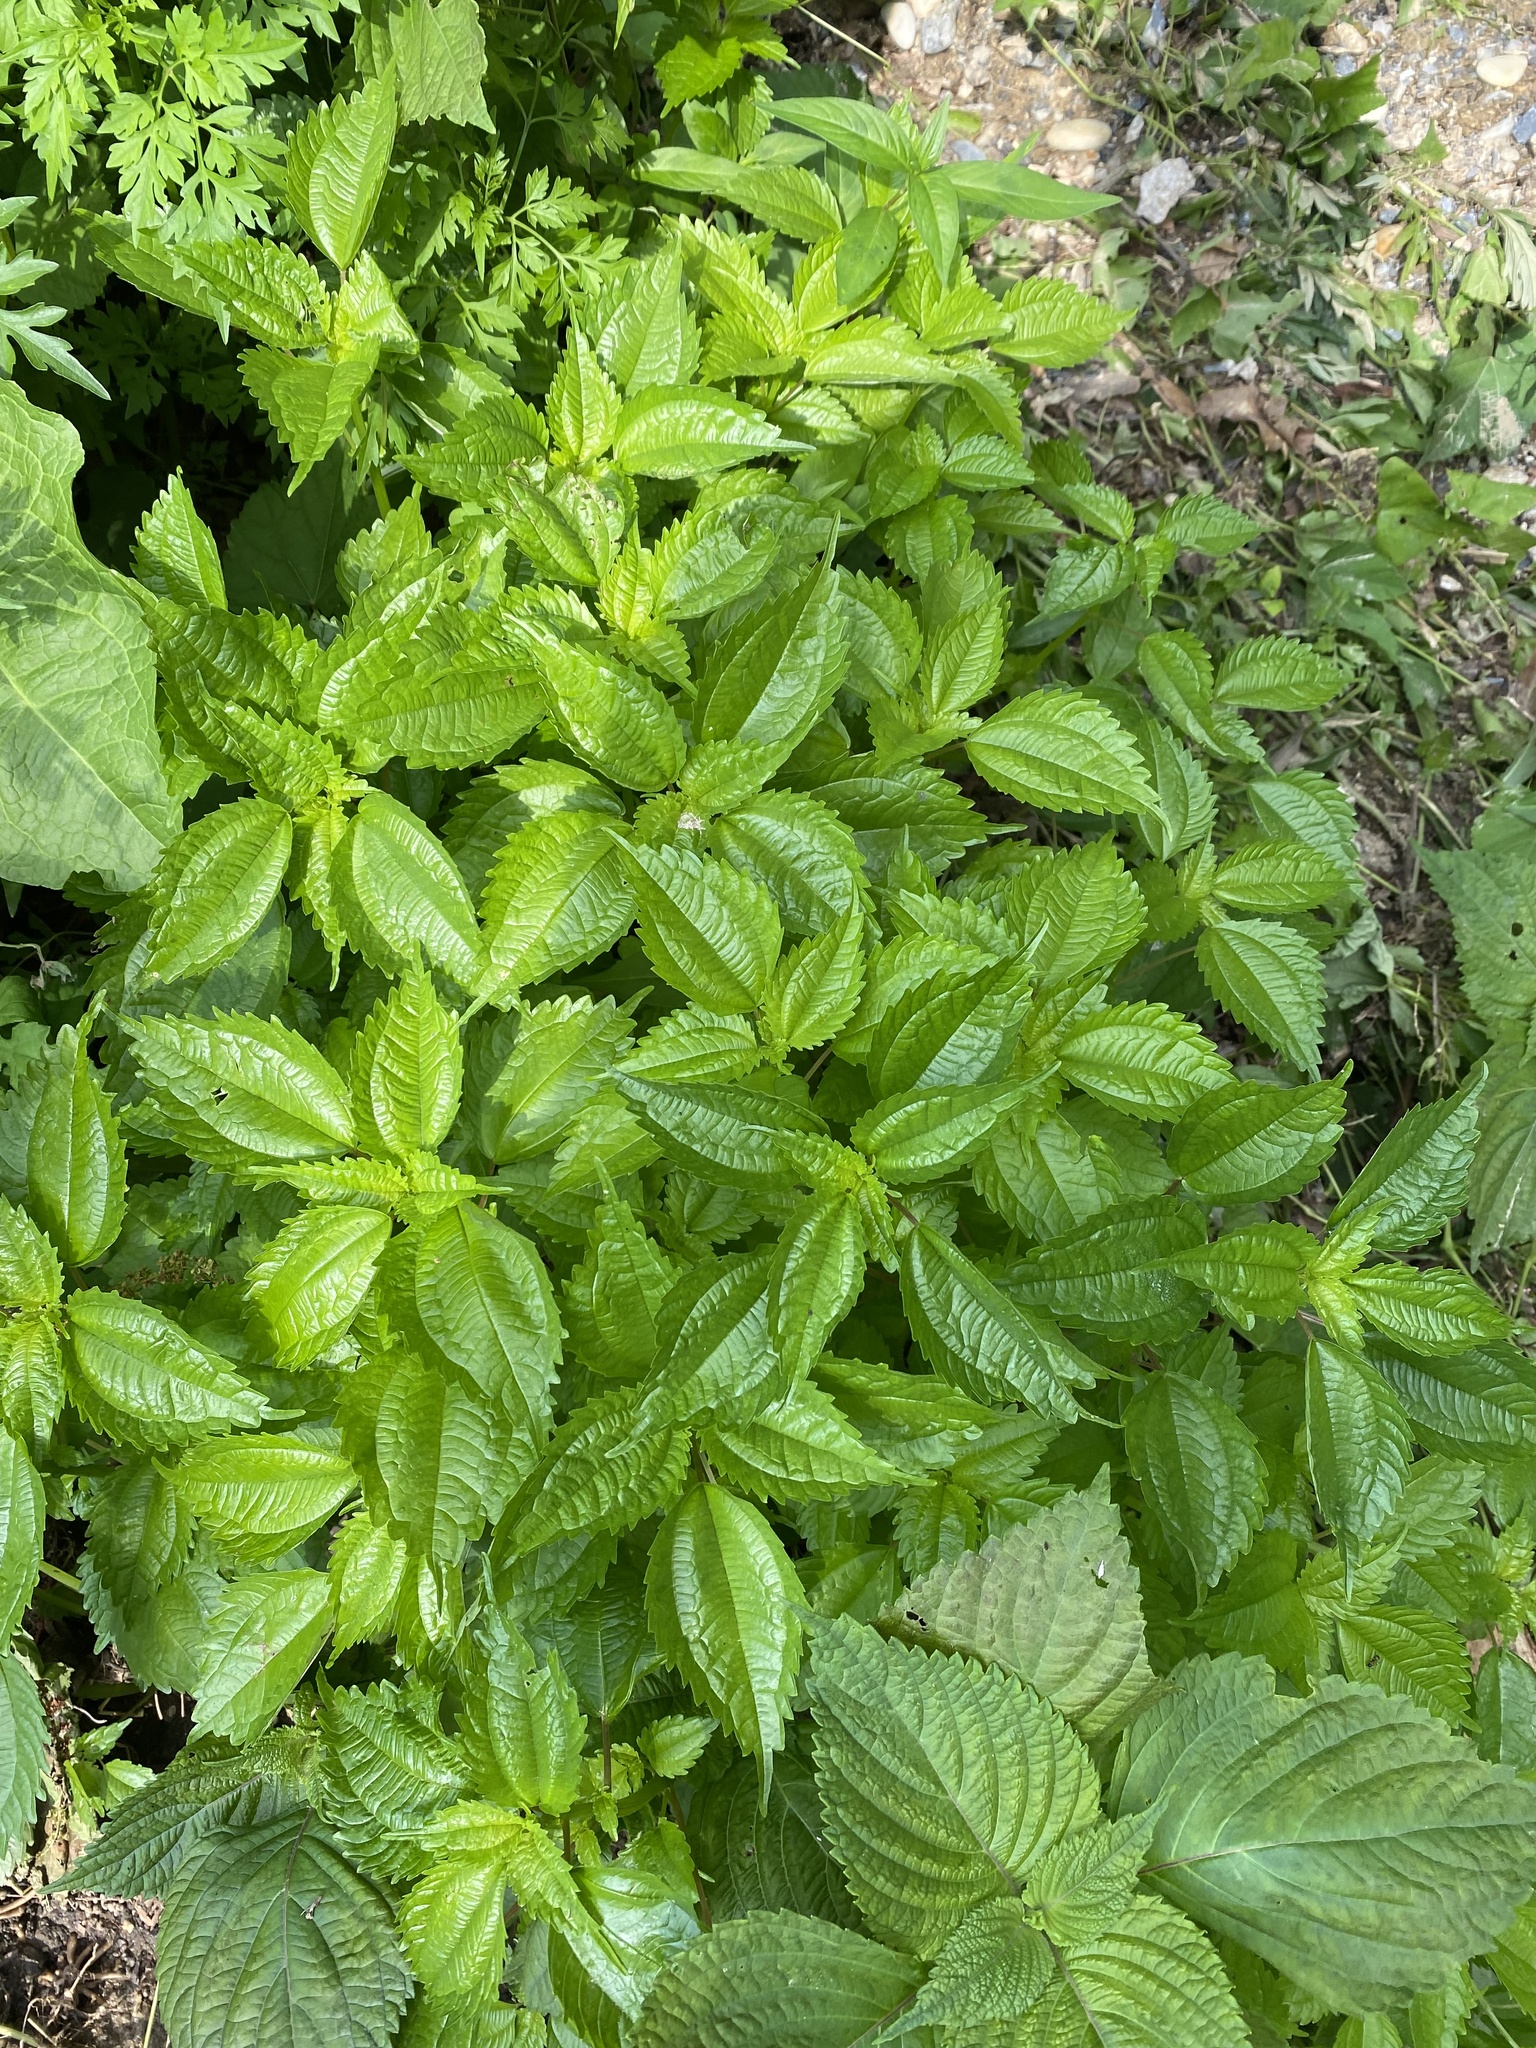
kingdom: Plantae
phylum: Tracheophyta
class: Magnoliopsida
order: Rosales
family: Urticaceae
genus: Pilea
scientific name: Pilea pumila
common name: Clearweed
